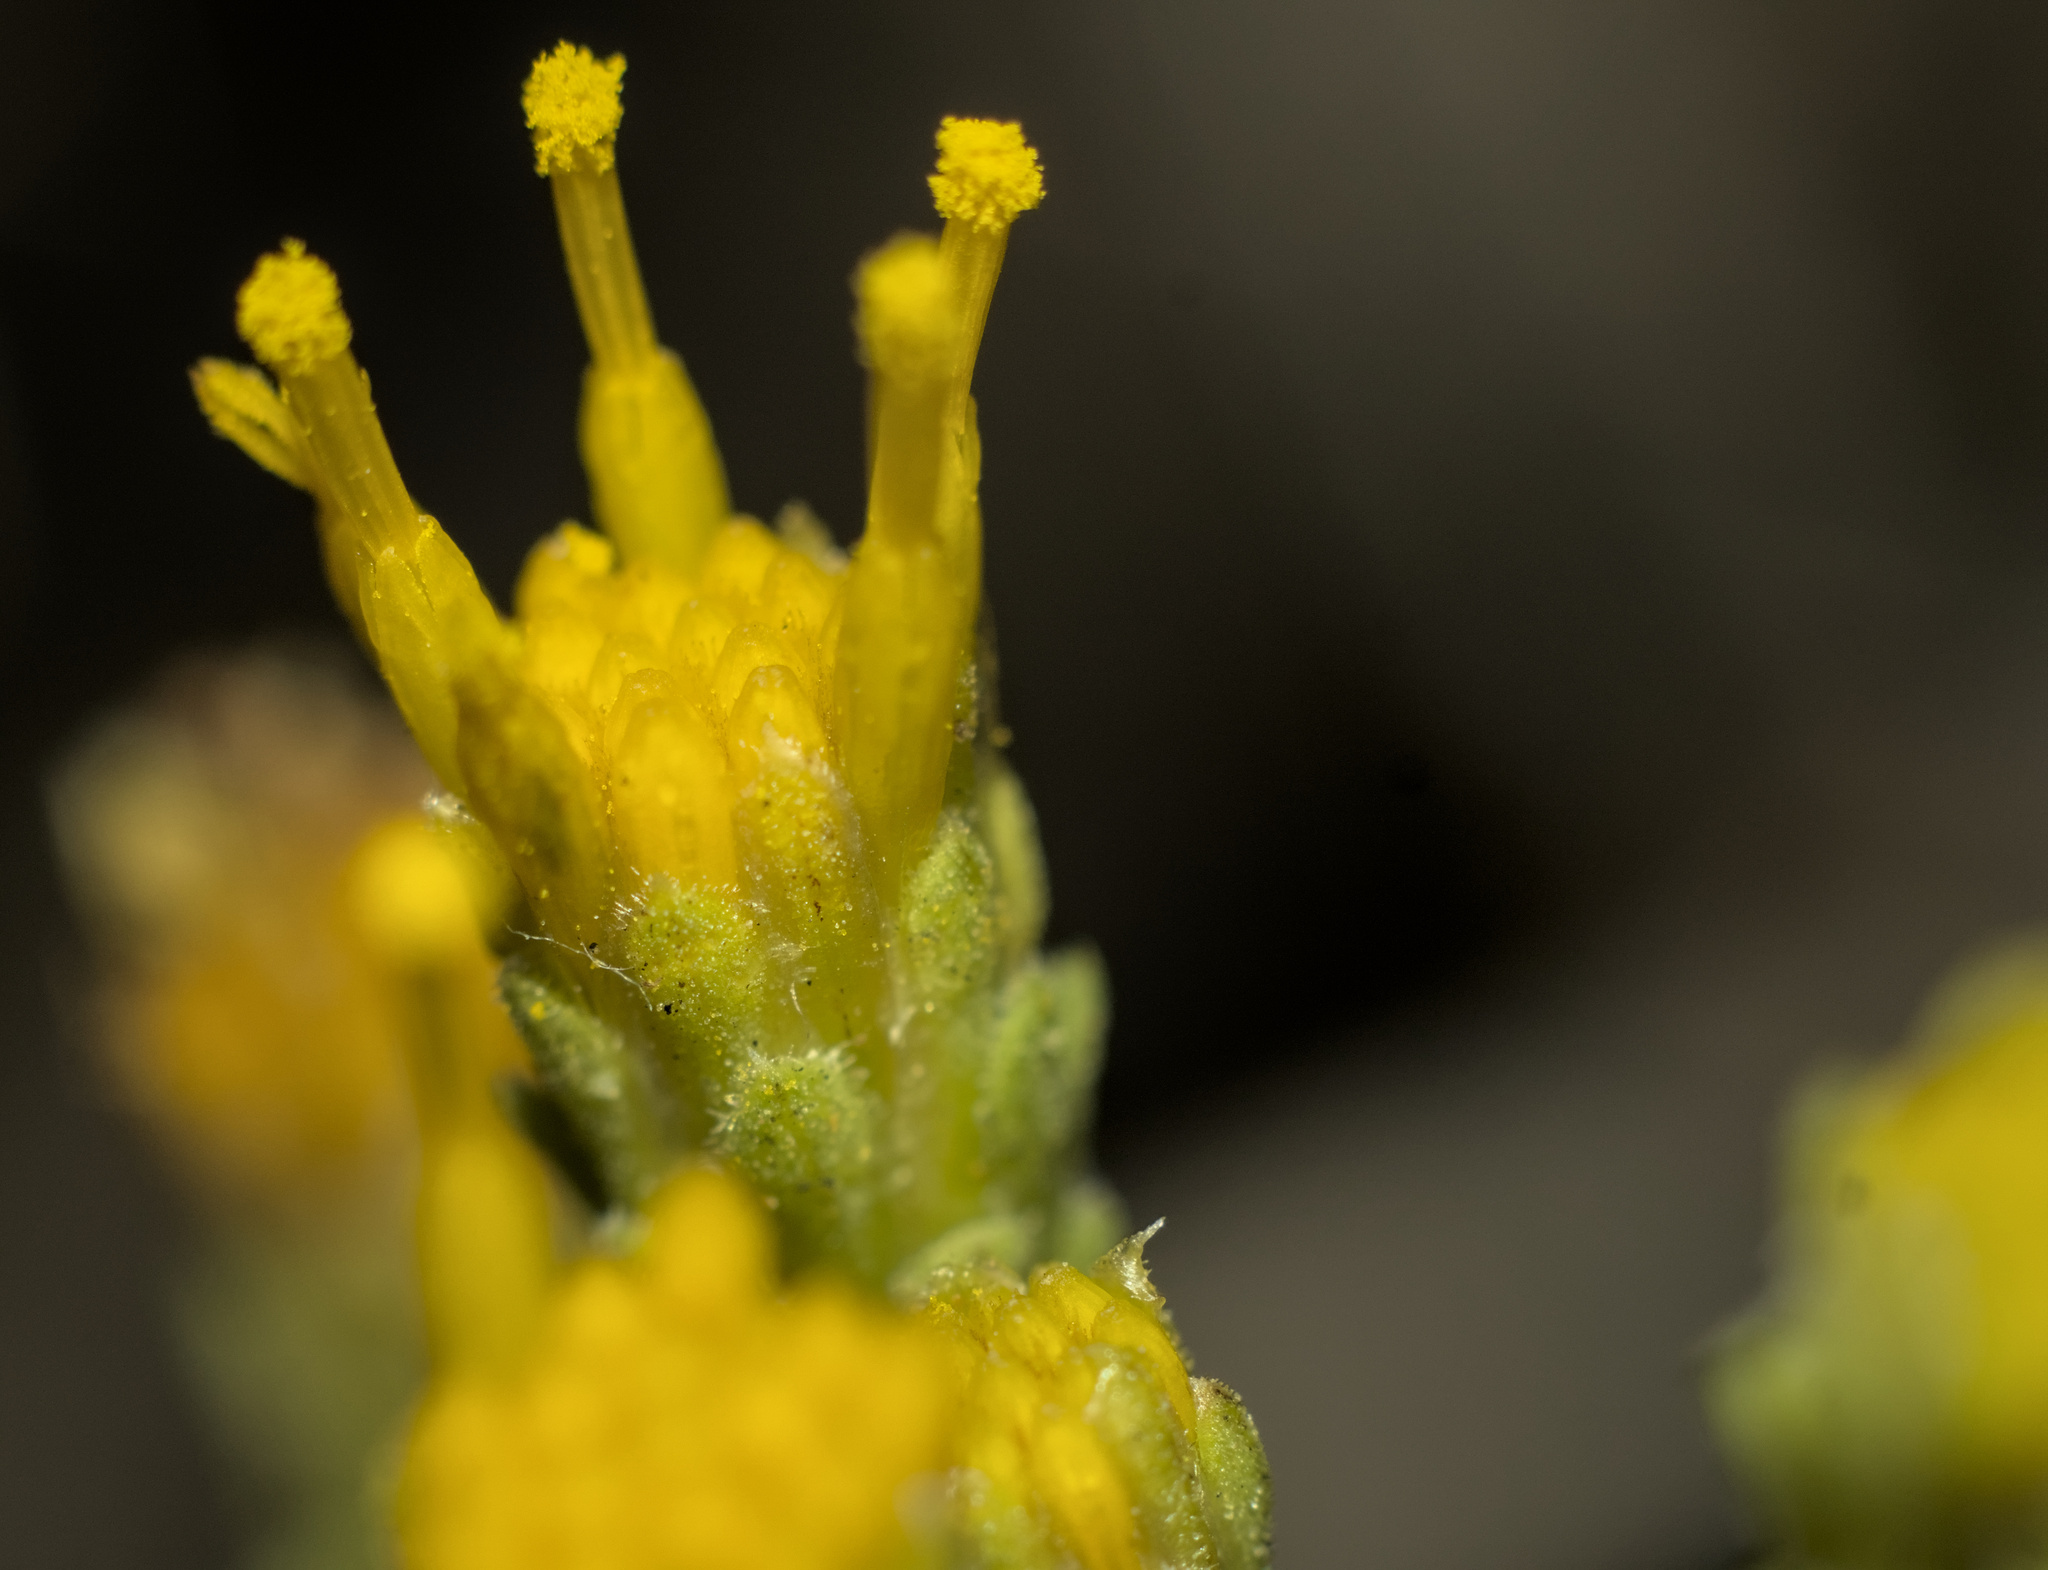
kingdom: Plantae
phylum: Tracheophyta
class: Magnoliopsida
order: Asterales
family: Asteraceae
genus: Isocoma
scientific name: Isocoma menziesii
